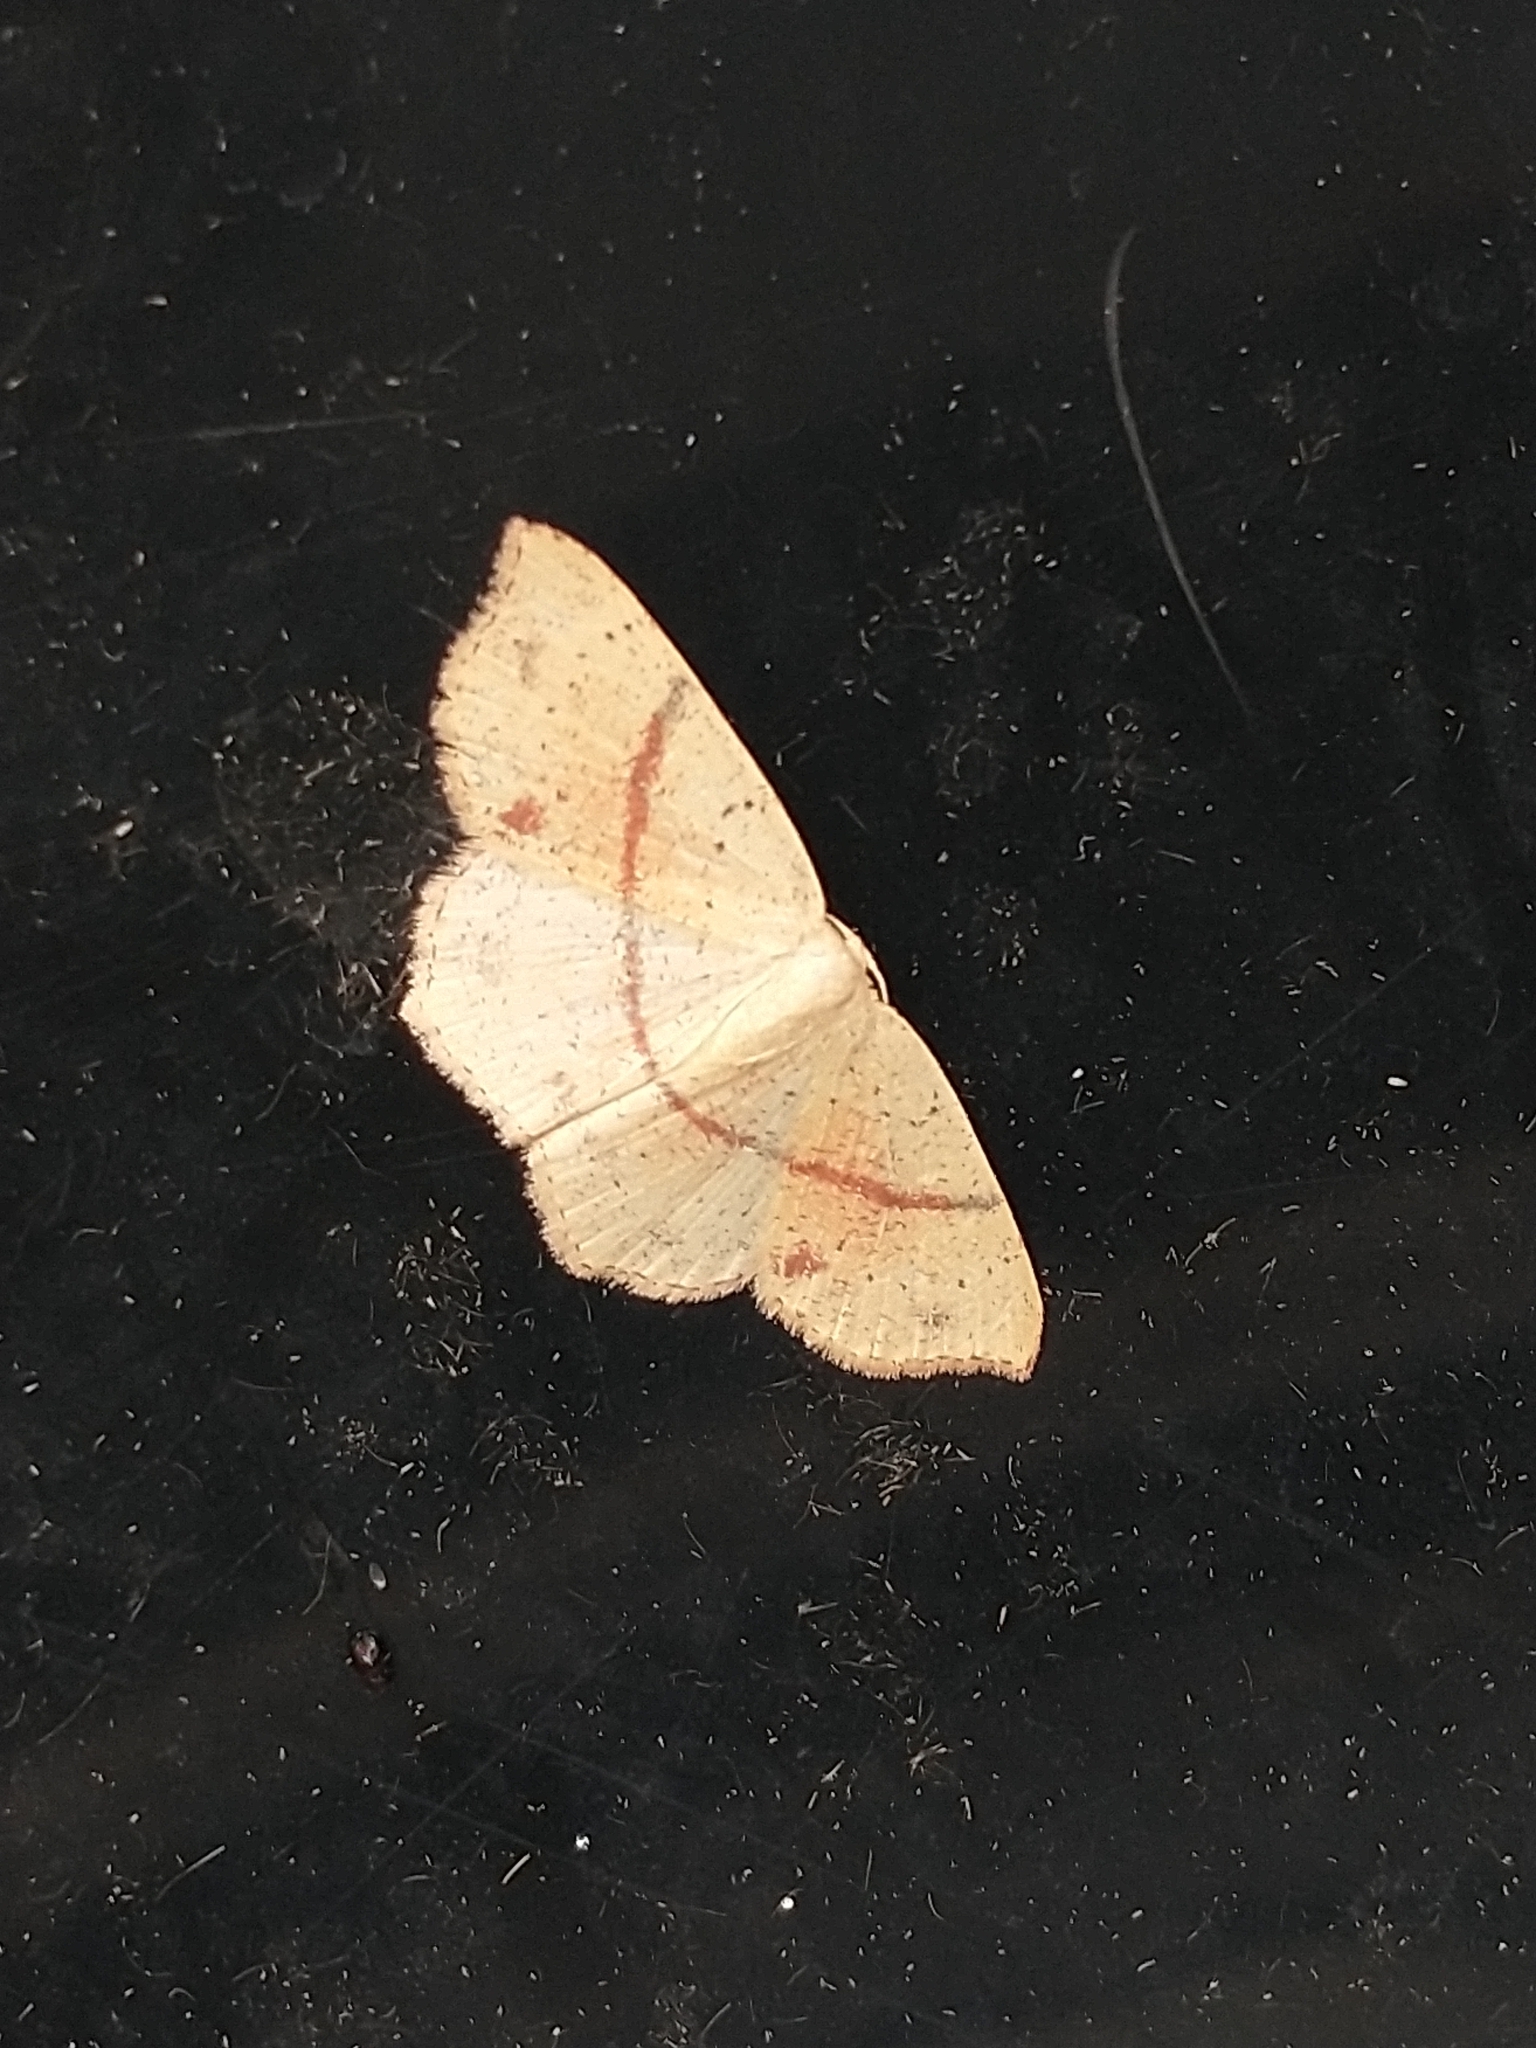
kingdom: Animalia
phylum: Arthropoda
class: Insecta
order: Lepidoptera
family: Geometridae
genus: Cyclophora
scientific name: Cyclophora punctaria
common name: Maiden's blush
